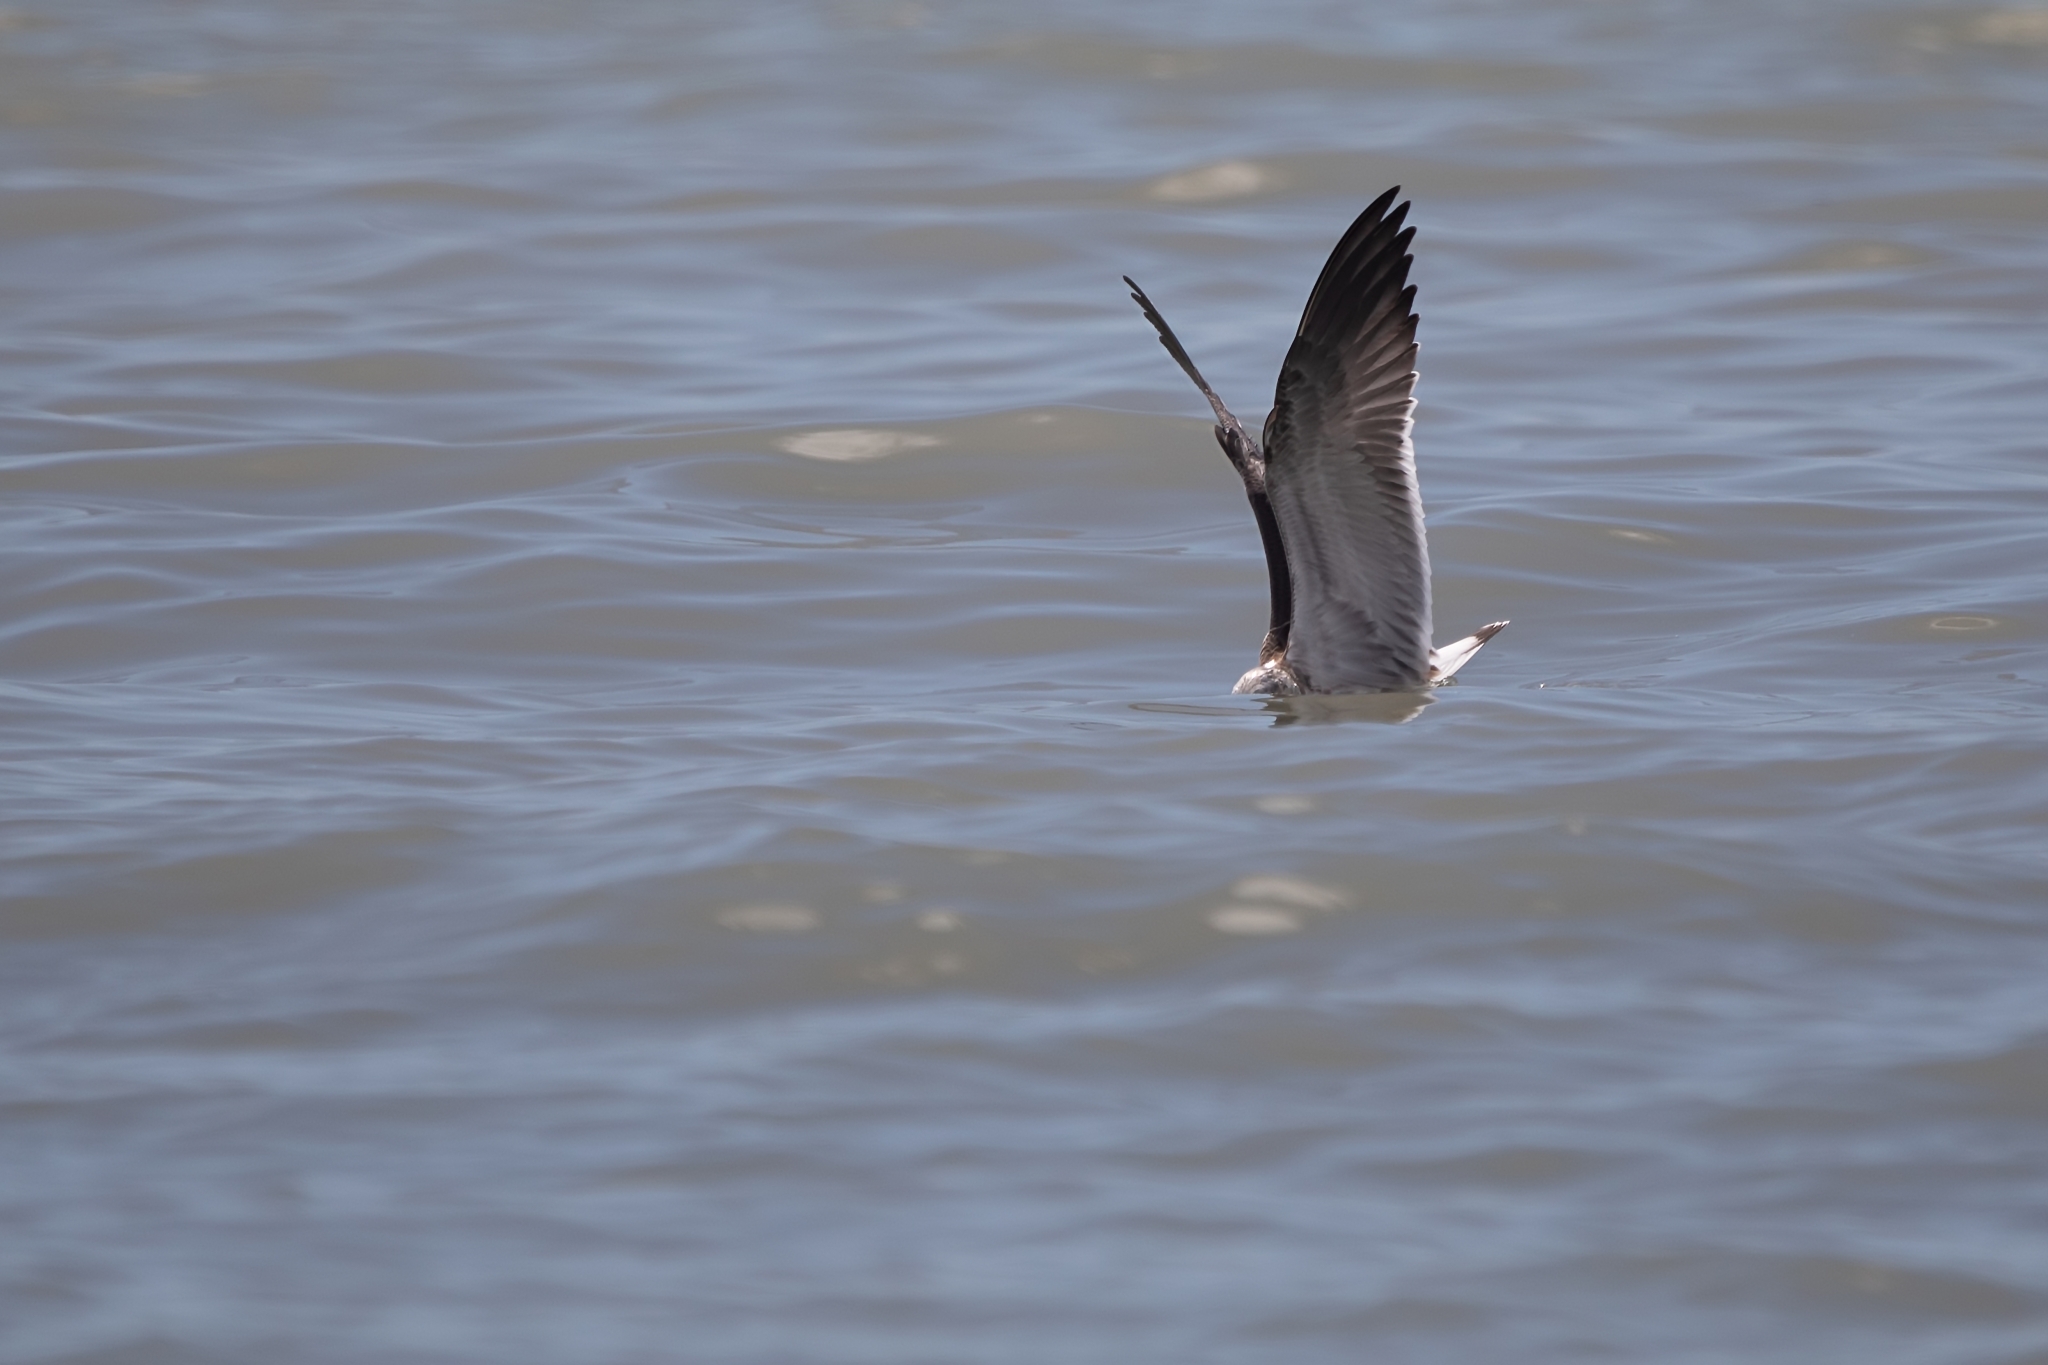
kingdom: Animalia
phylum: Chordata
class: Aves
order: Charadriiformes
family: Laridae
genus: Leucophaeus
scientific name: Leucophaeus atricilla
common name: Laughing gull
